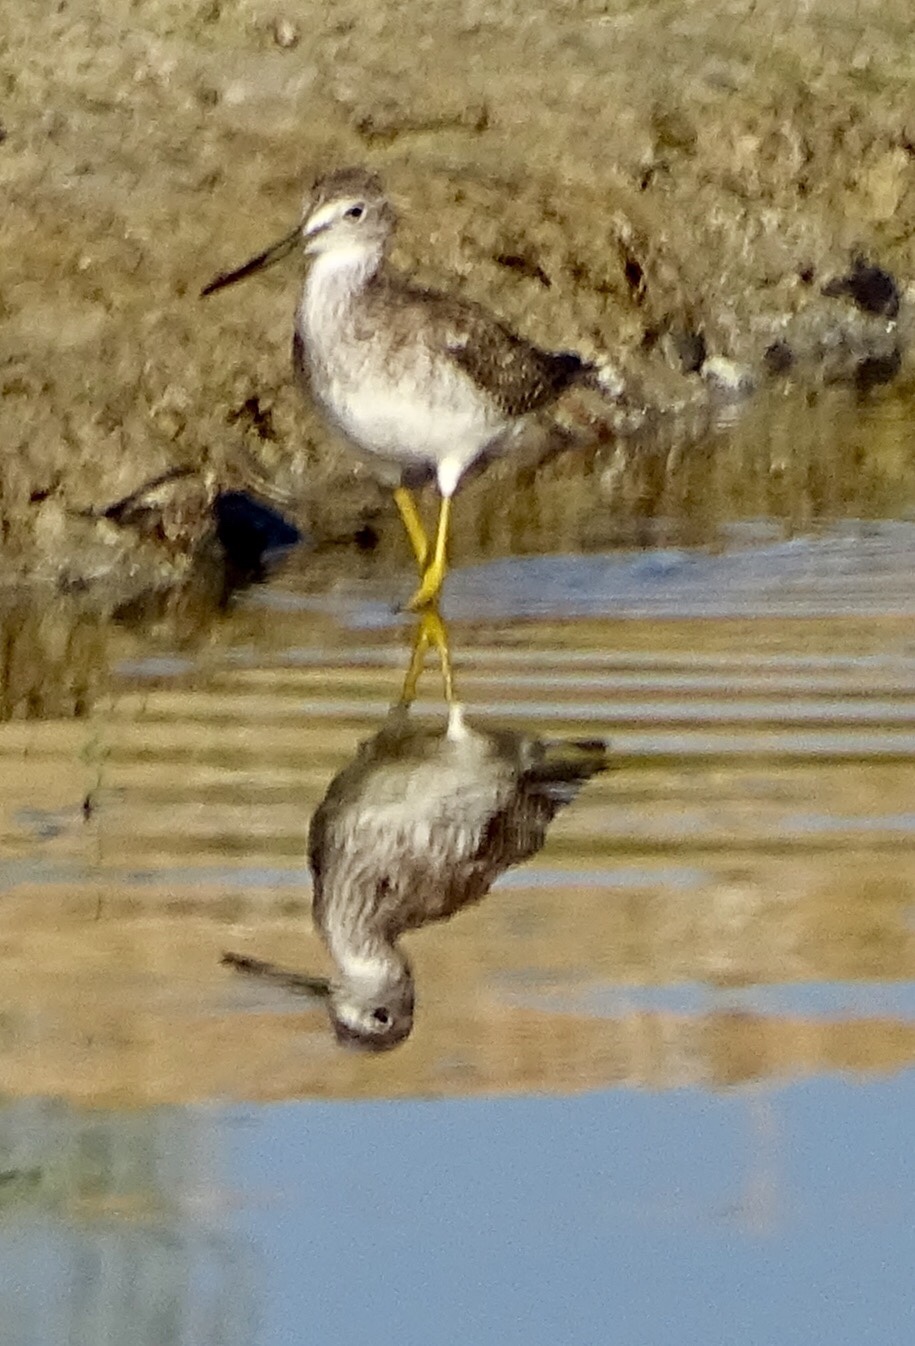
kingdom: Animalia
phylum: Chordata
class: Aves
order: Charadriiformes
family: Scolopacidae
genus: Tringa
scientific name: Tringa melanoleuca
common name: Greater yellowlegs
